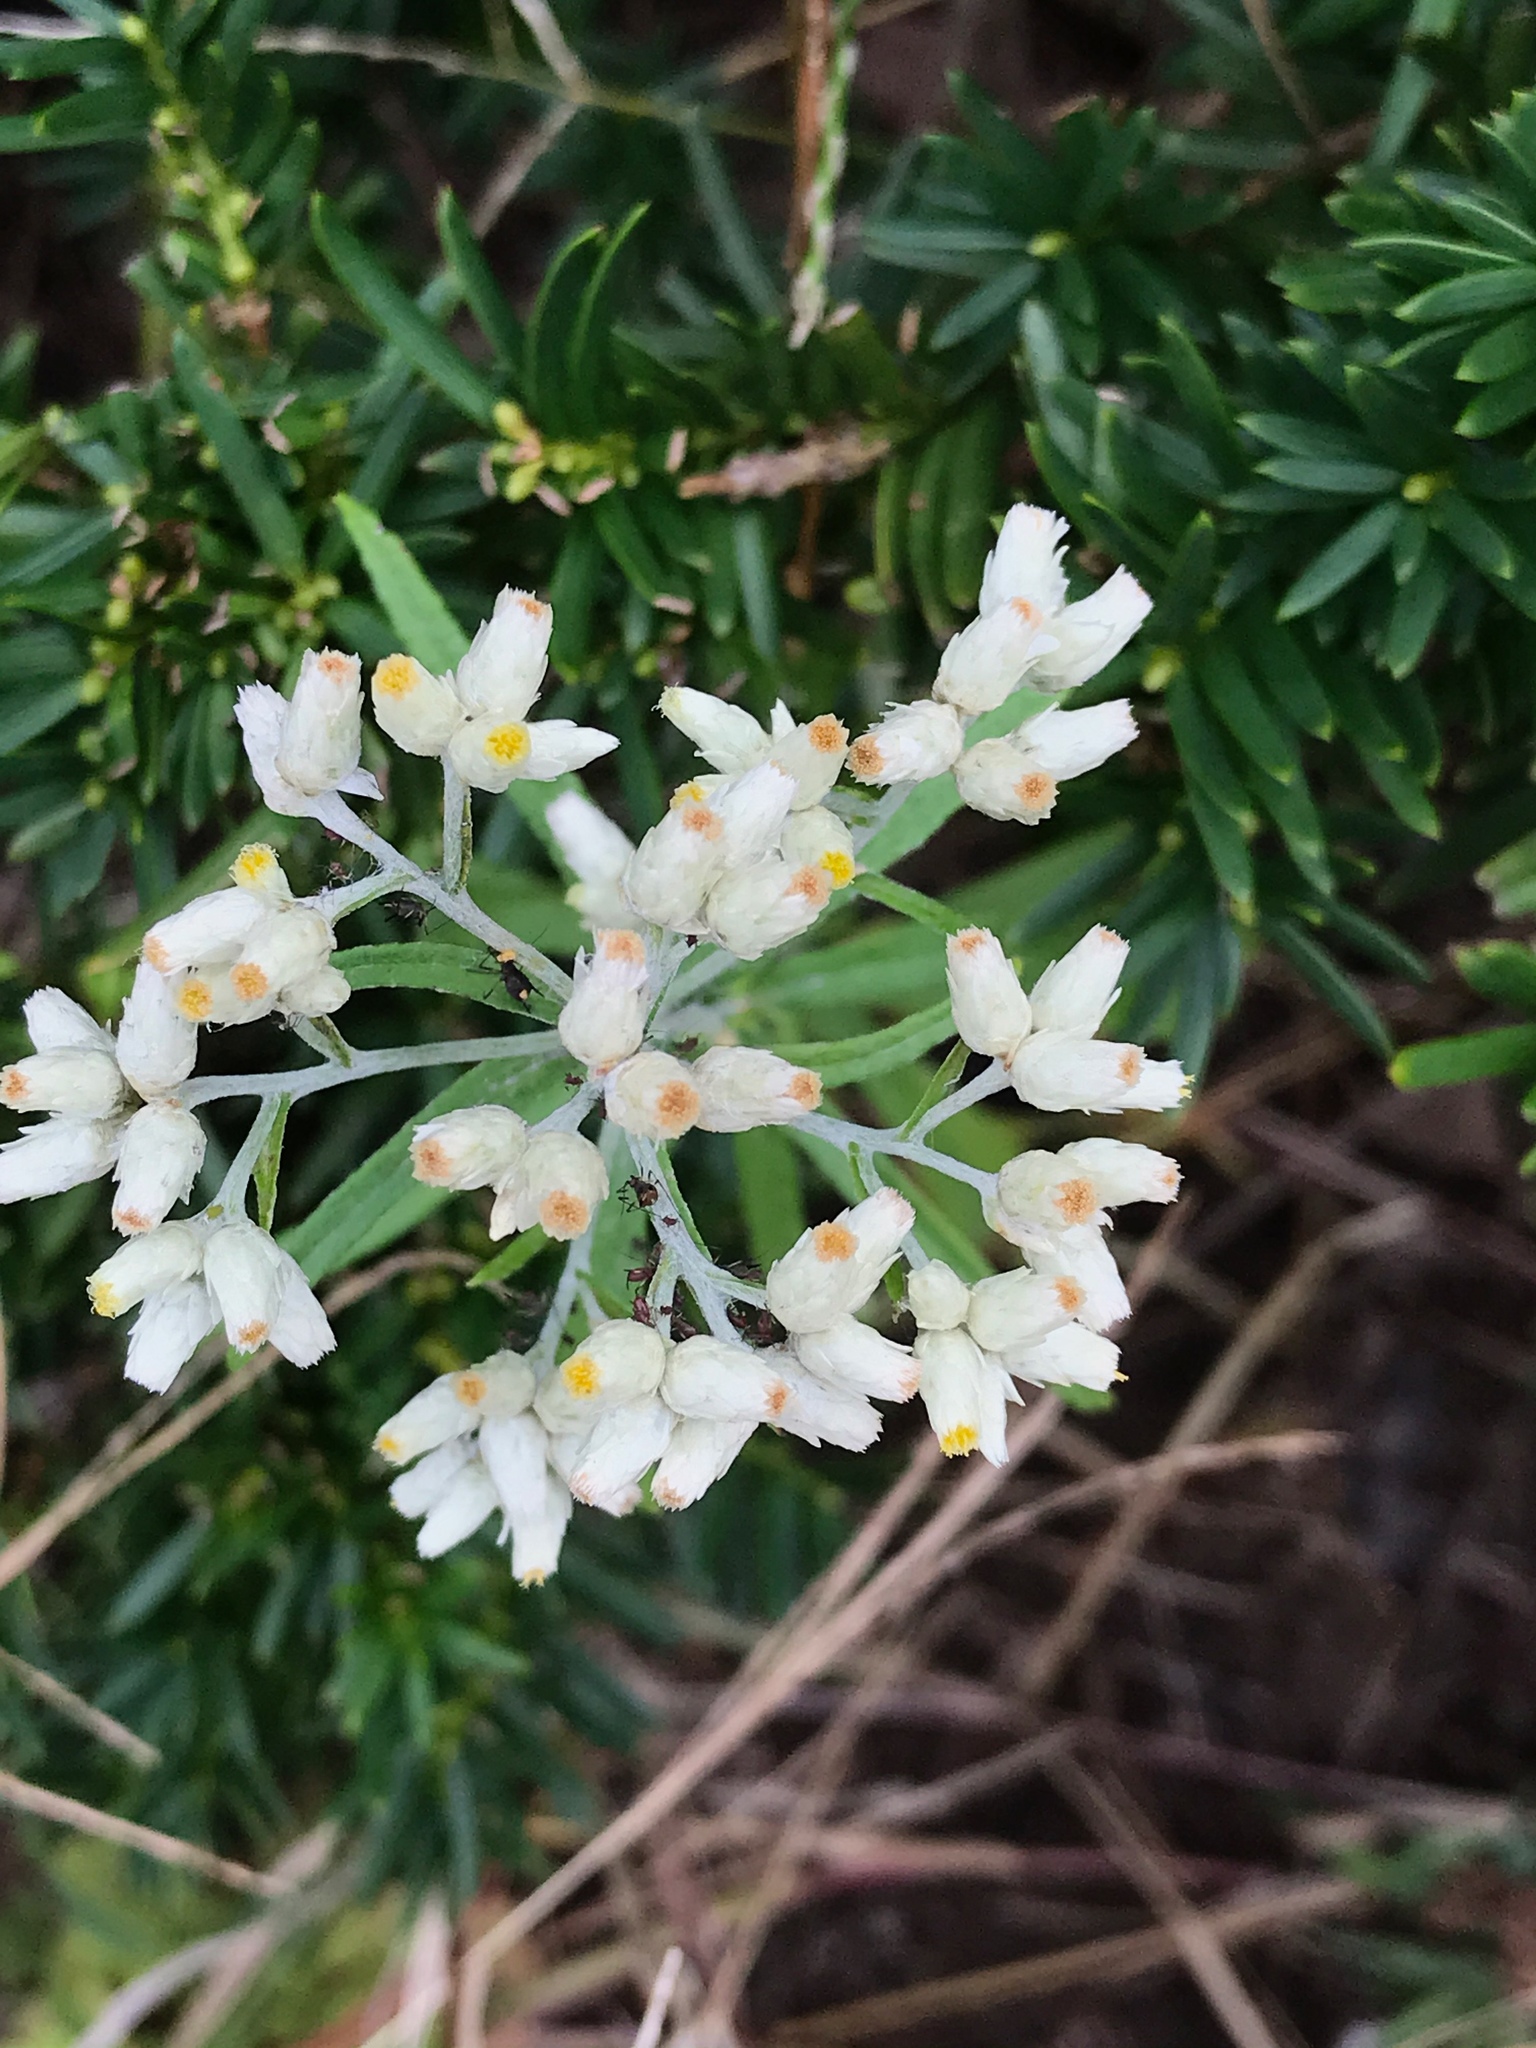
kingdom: Plantae
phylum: Tracheophyta
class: Magnoliopsida
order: Asterales
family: Asteraceae
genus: Pseudognaphalium
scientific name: Pseudognaphalium obtusifolium
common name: Eastern rabbit-tobacco
